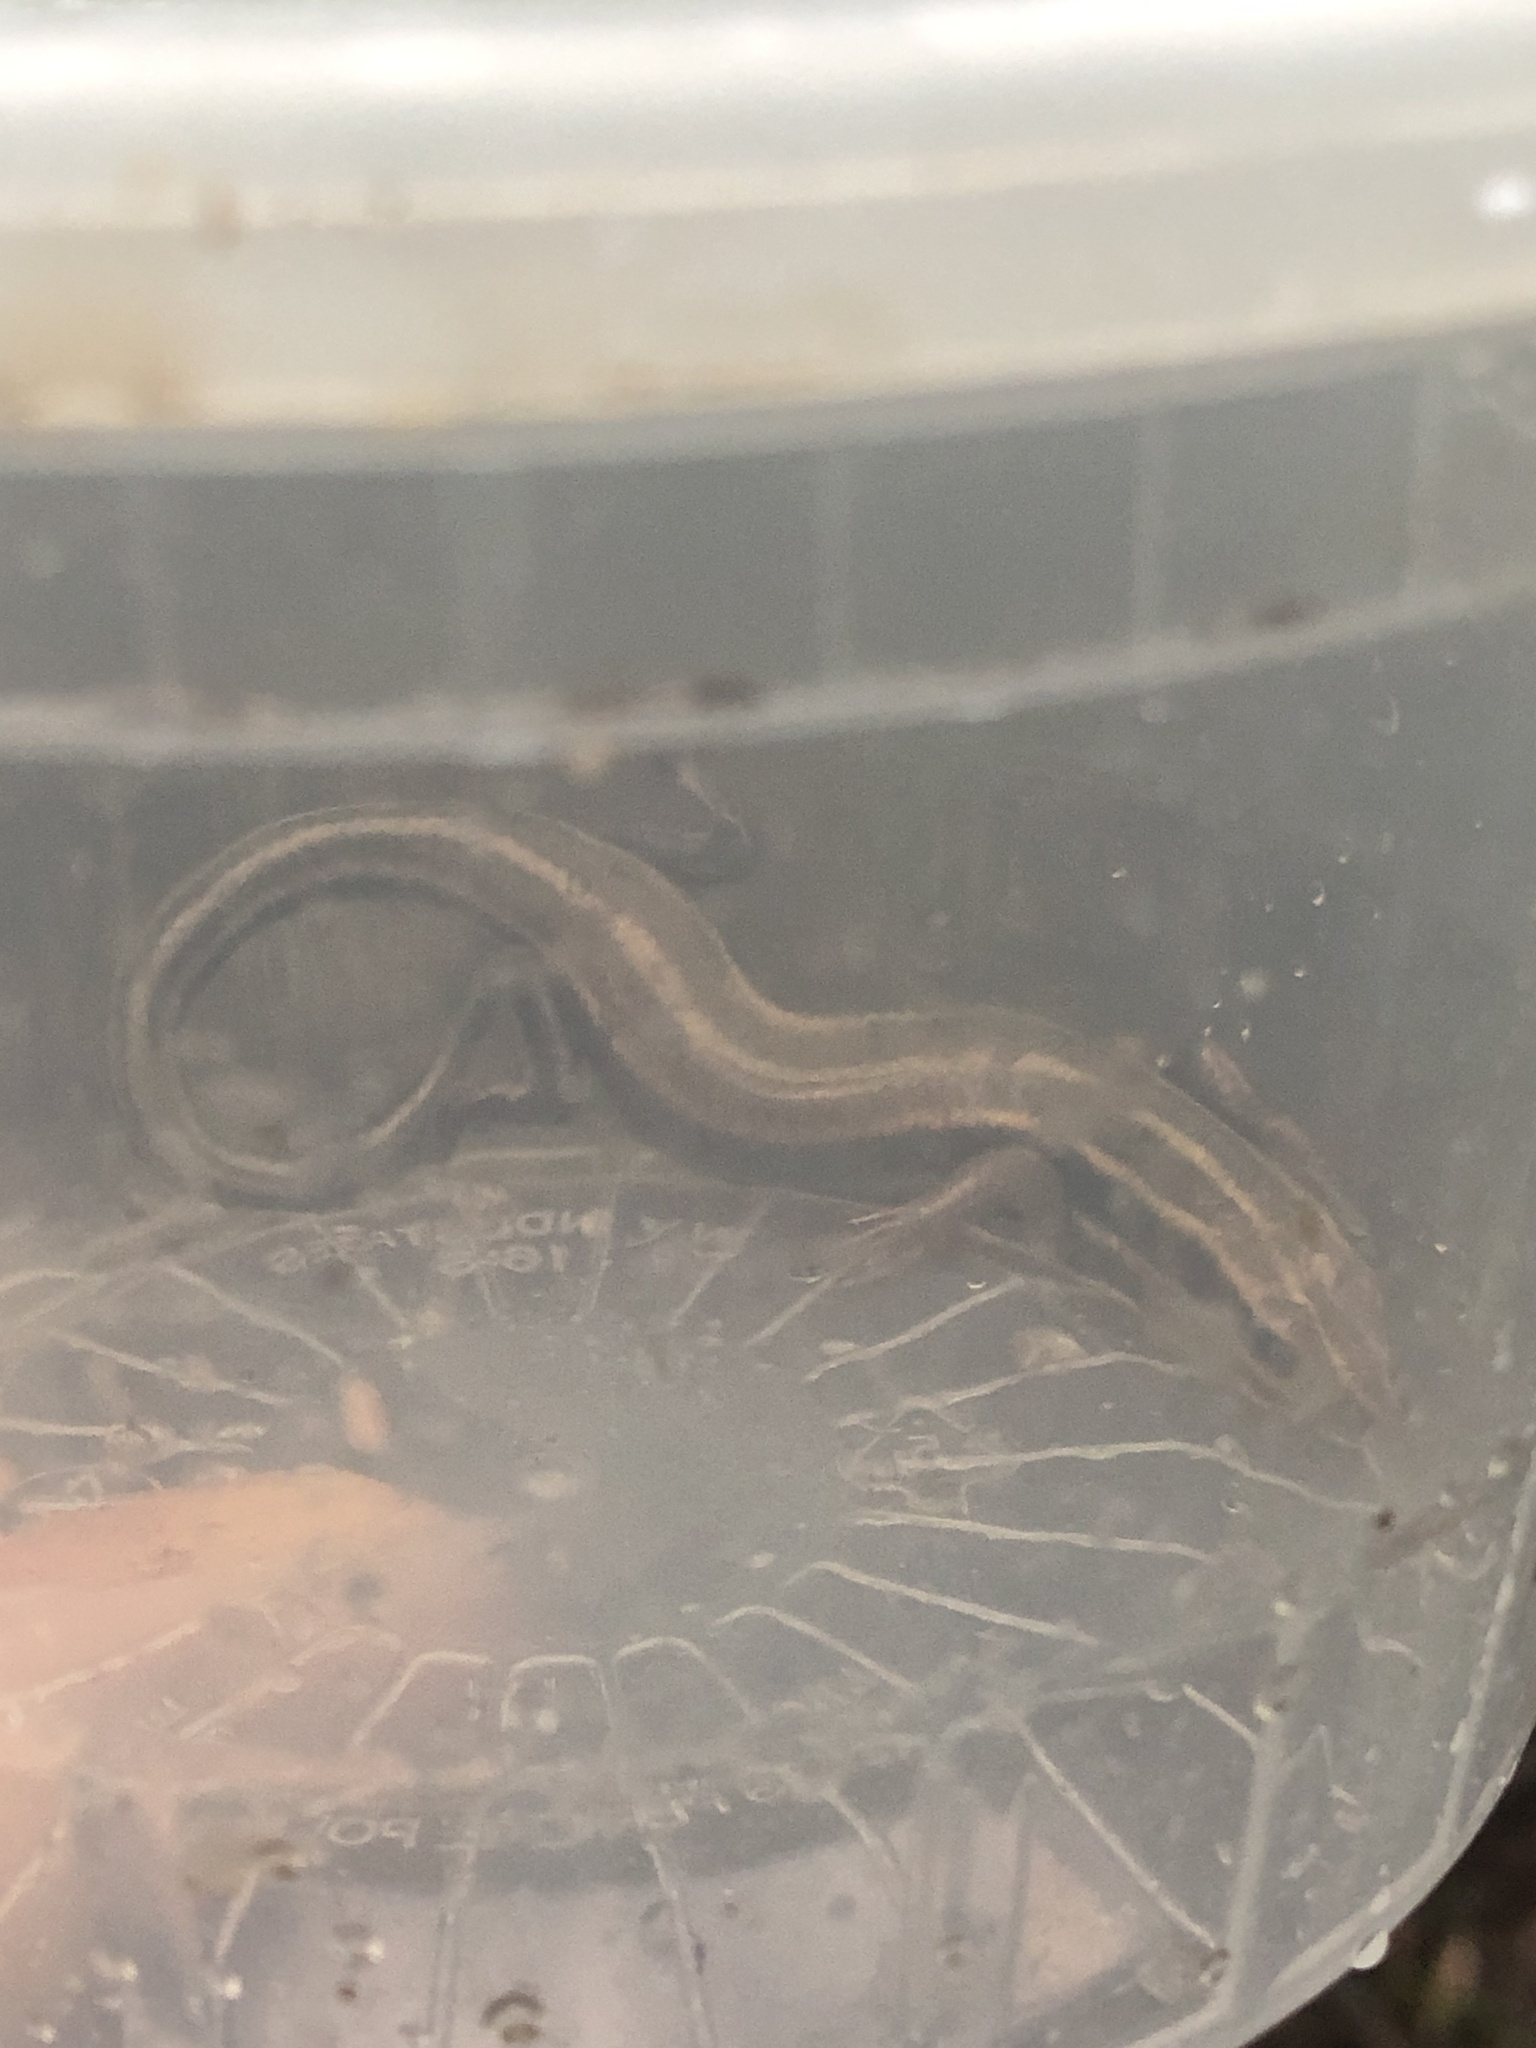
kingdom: Animalia
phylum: Chordata
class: Squamata
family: Scincidae
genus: Plestiodon
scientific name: Plestiodon fasciatus
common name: Five-lined skink
